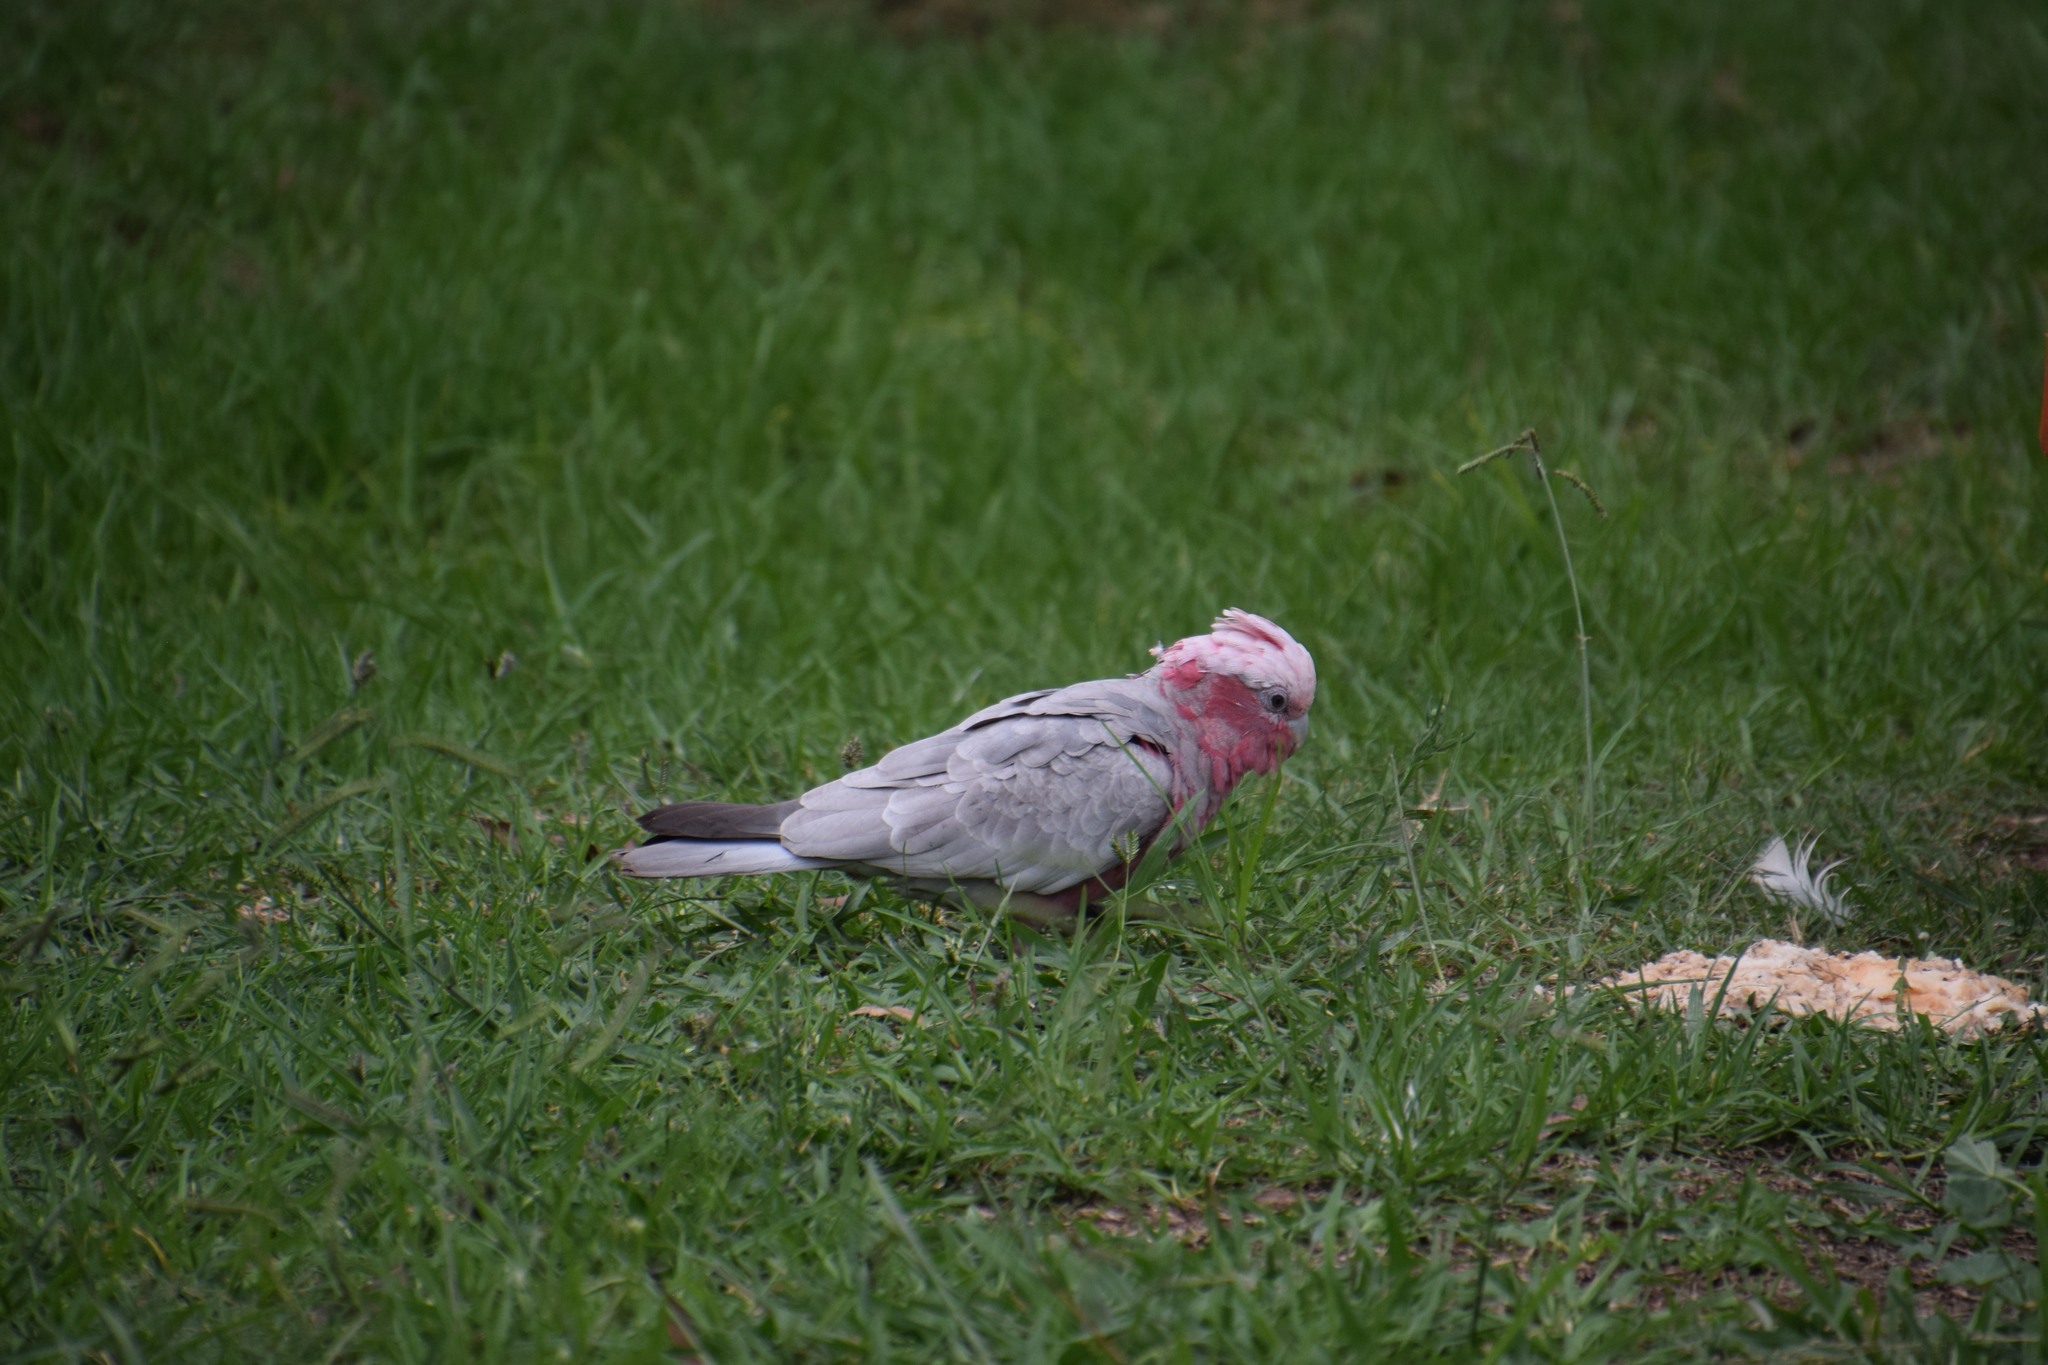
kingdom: Animalia
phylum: Chordata
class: Aves
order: Psittaciformes
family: Psittacidae
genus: Eolophus
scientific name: Eolophus roseicapilla
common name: Galah
